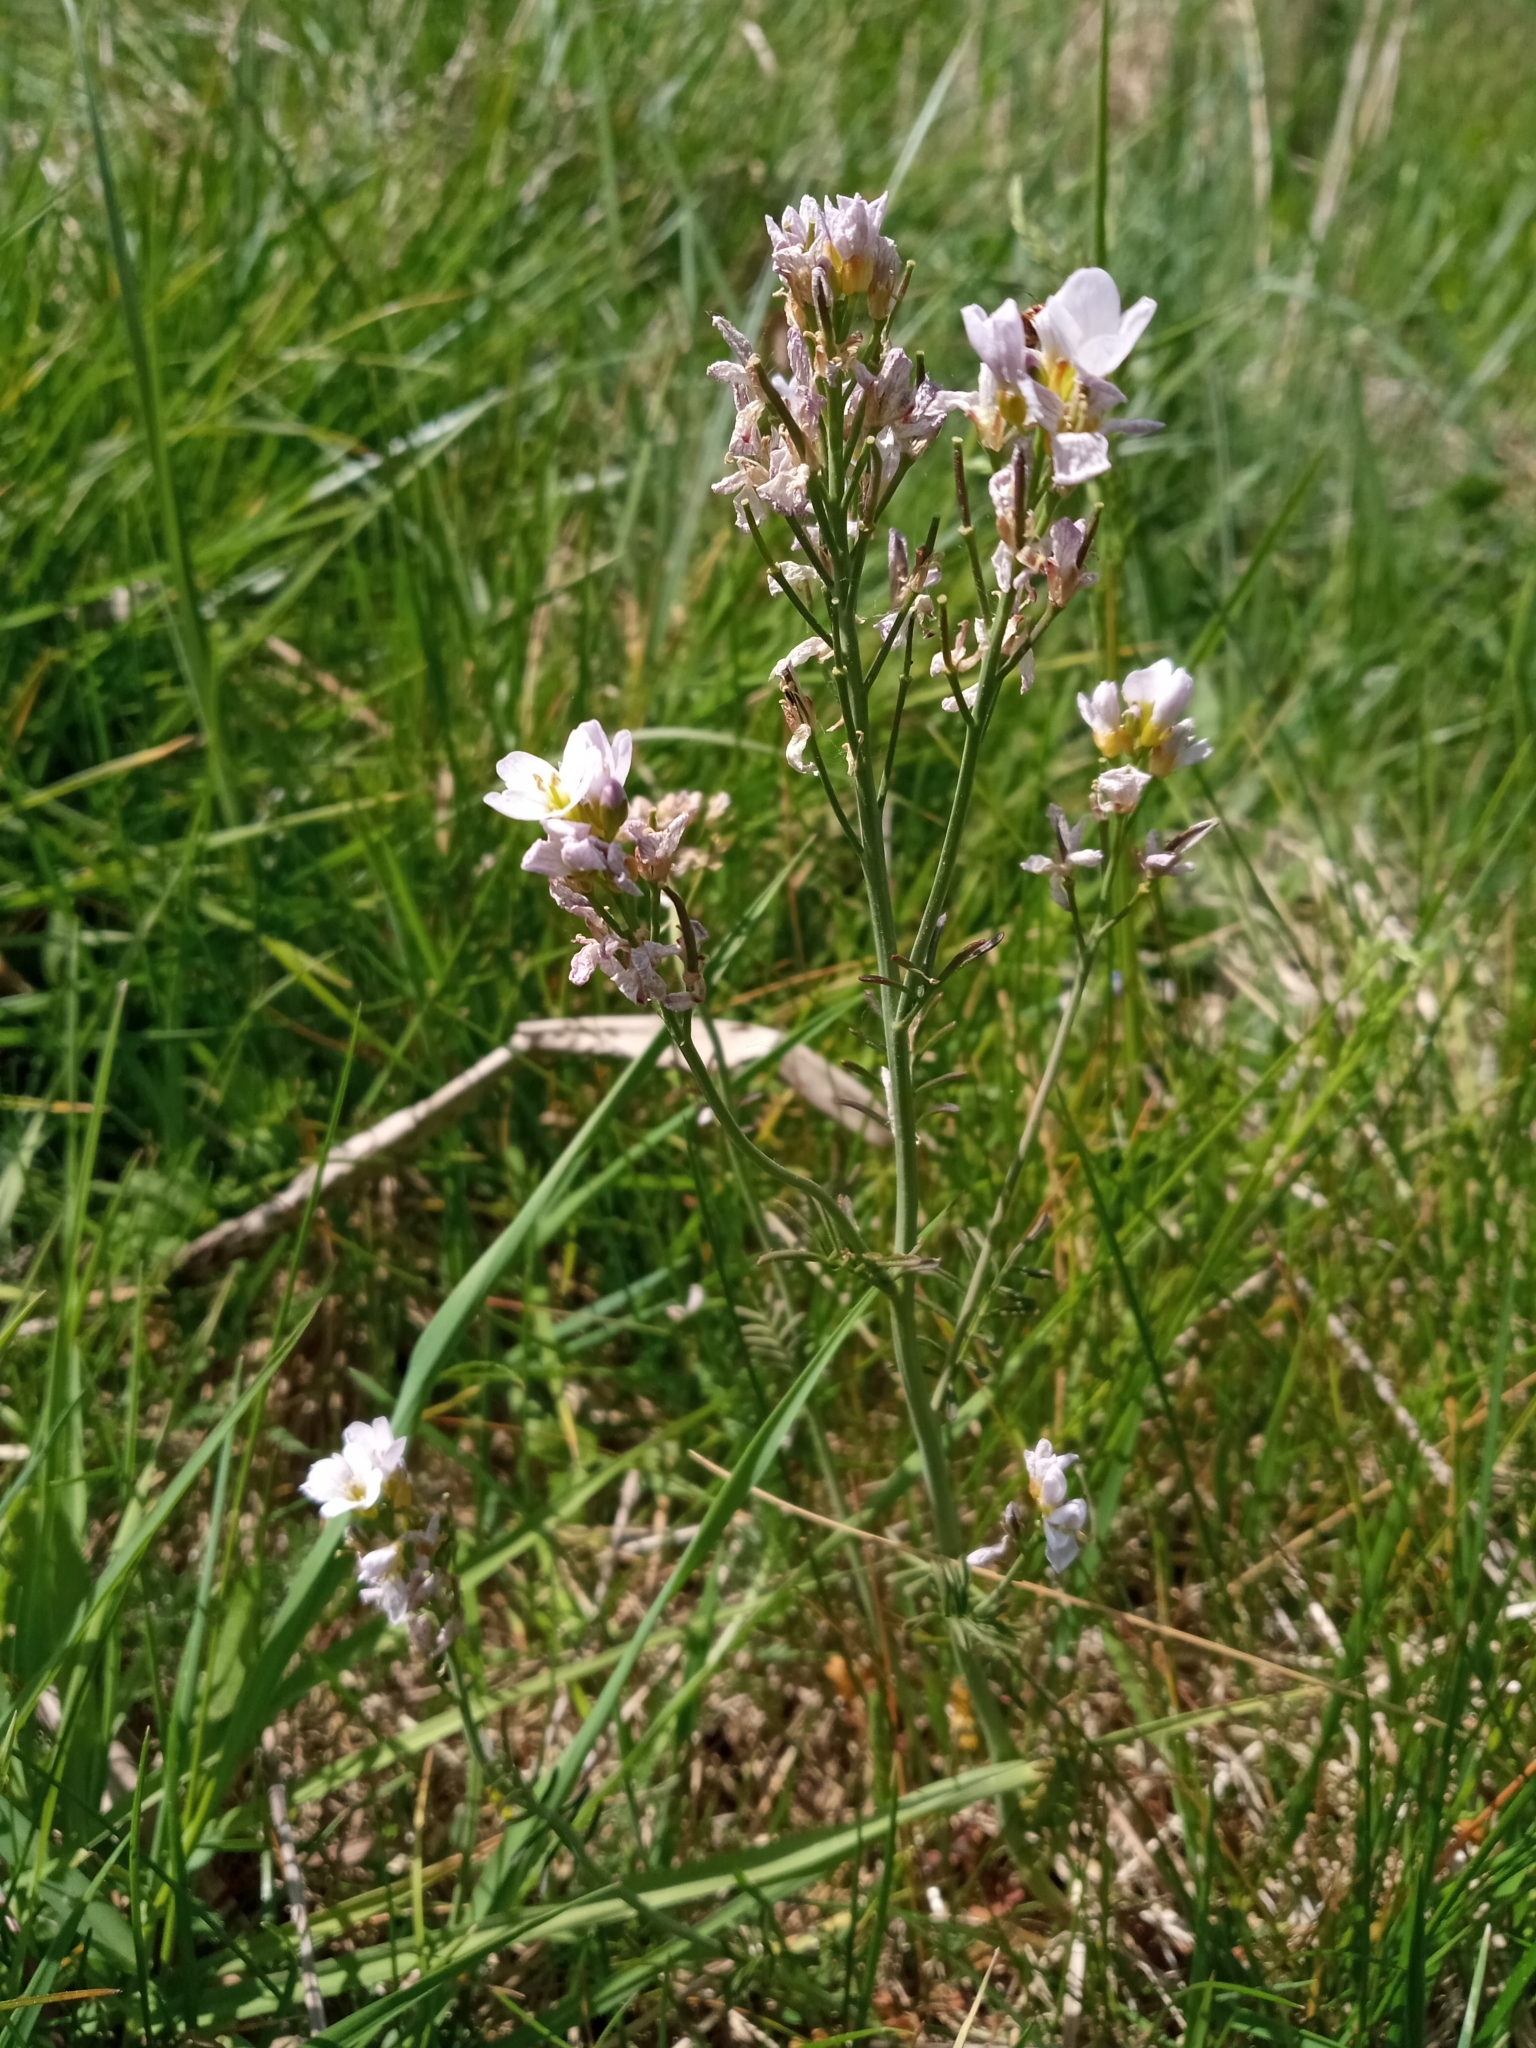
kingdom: Plantae
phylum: Tracheophyta
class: Magnoliopsida
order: Brassicales
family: Brassicaceae
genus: Cardamine
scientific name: Cardamine pratensis
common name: Cuckoo flower
